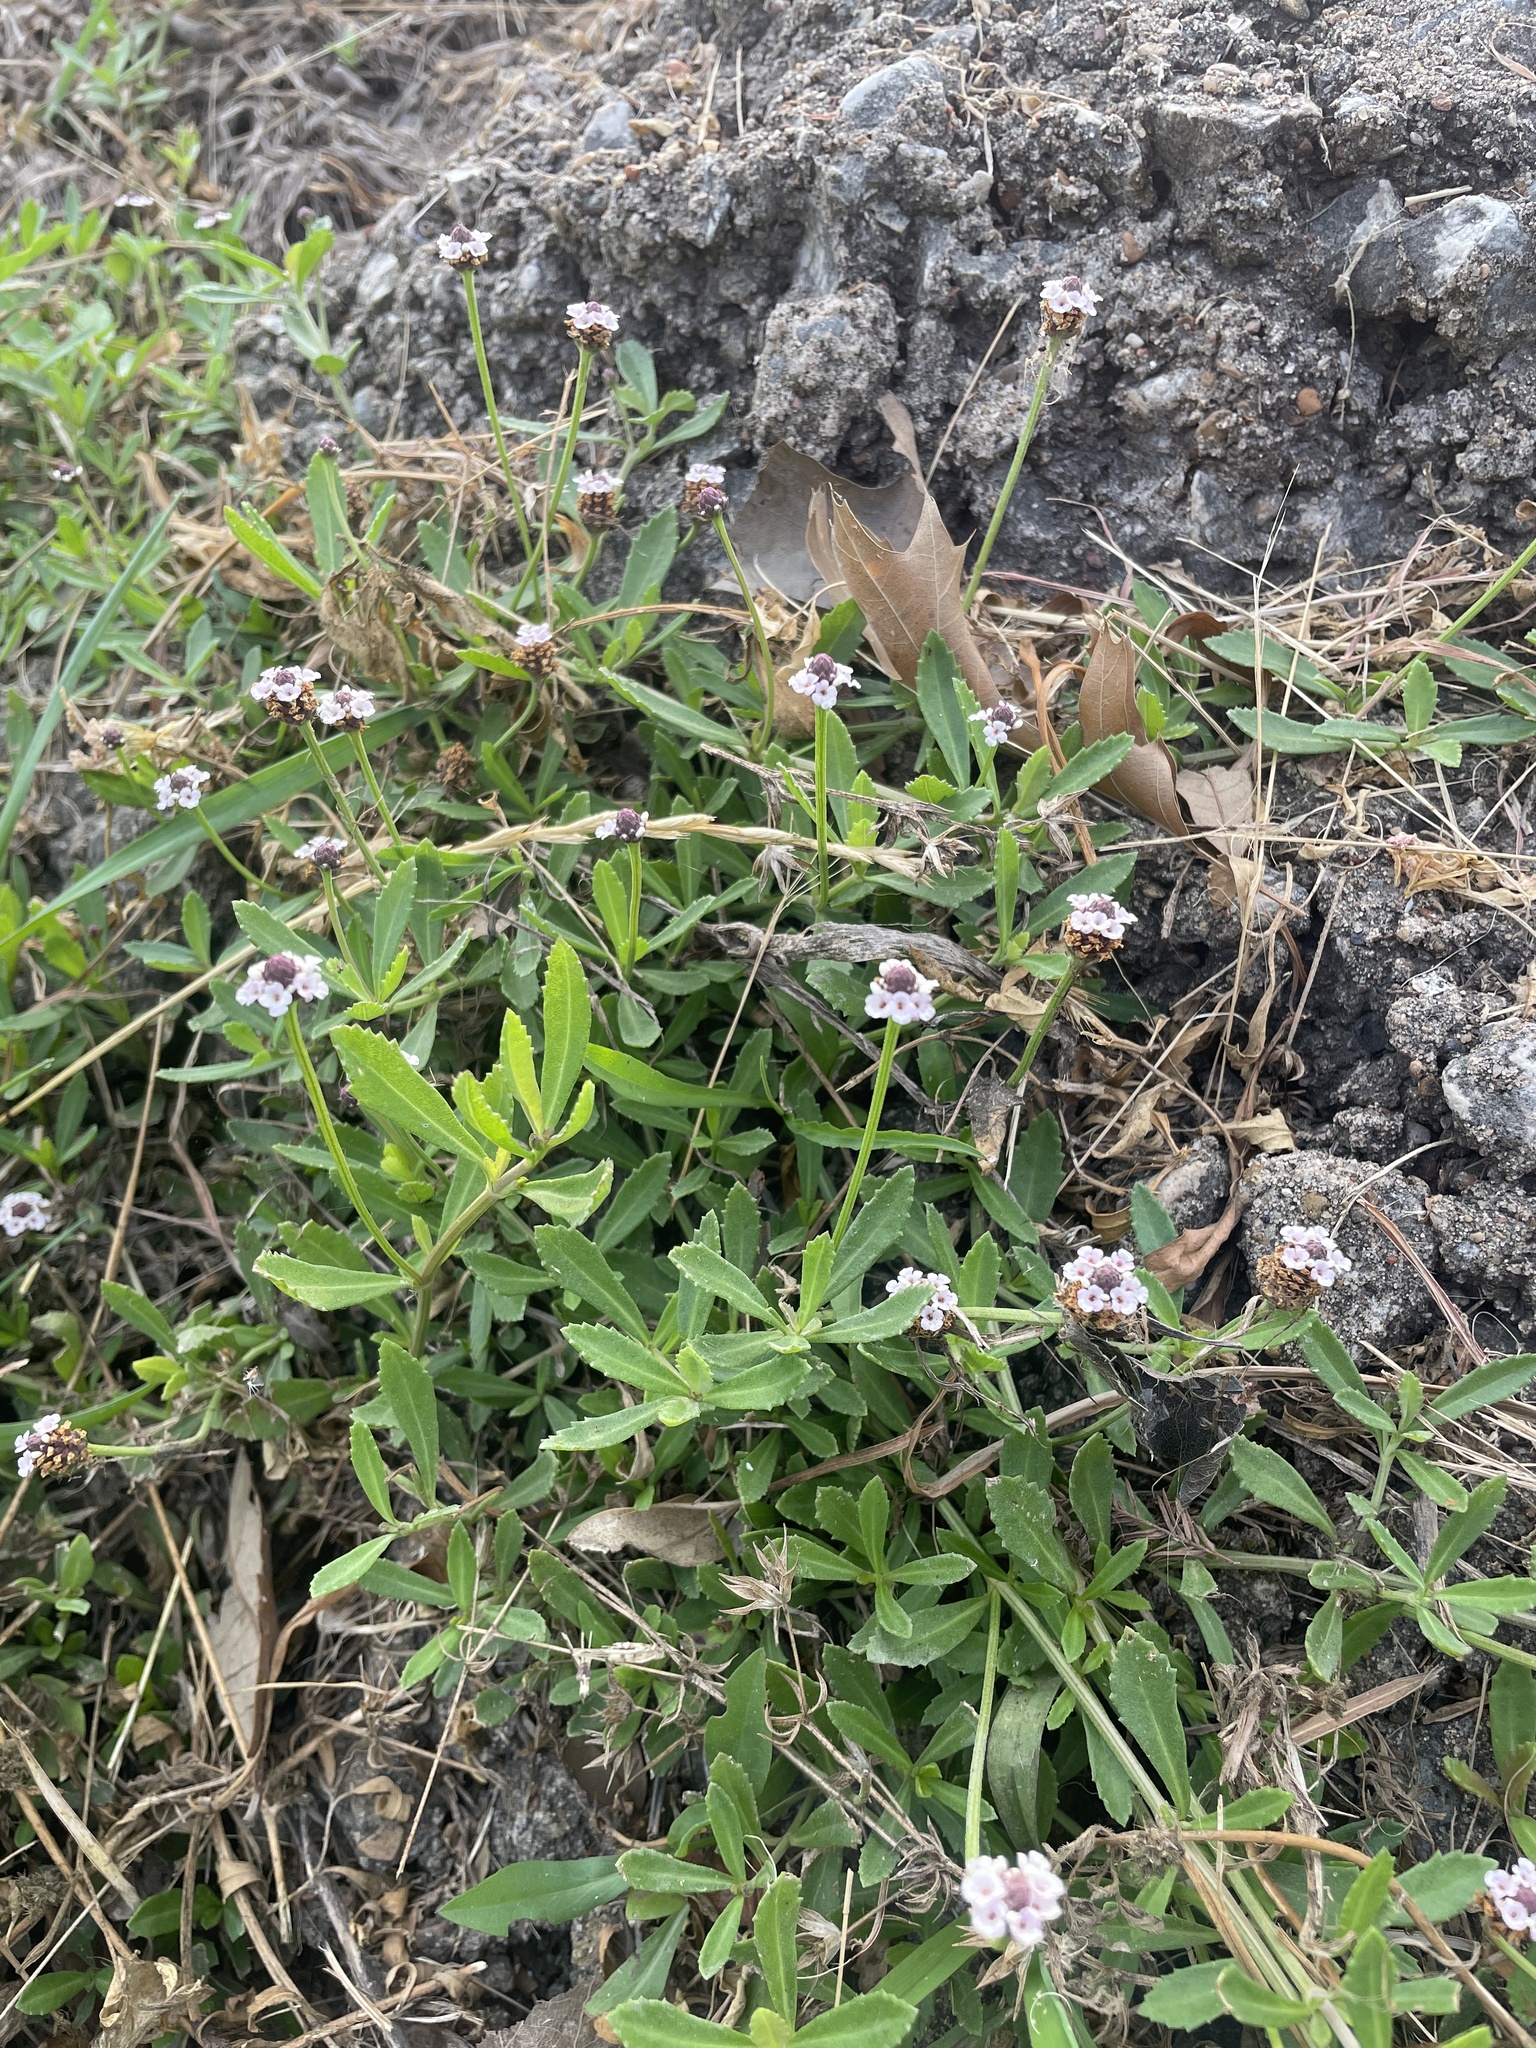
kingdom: Plantae
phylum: Tracheophyta
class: Magnoliopsida
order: Lamiales
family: Verbenaceae
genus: Phyla
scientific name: Phyla nodiflora
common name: Frogfruit
